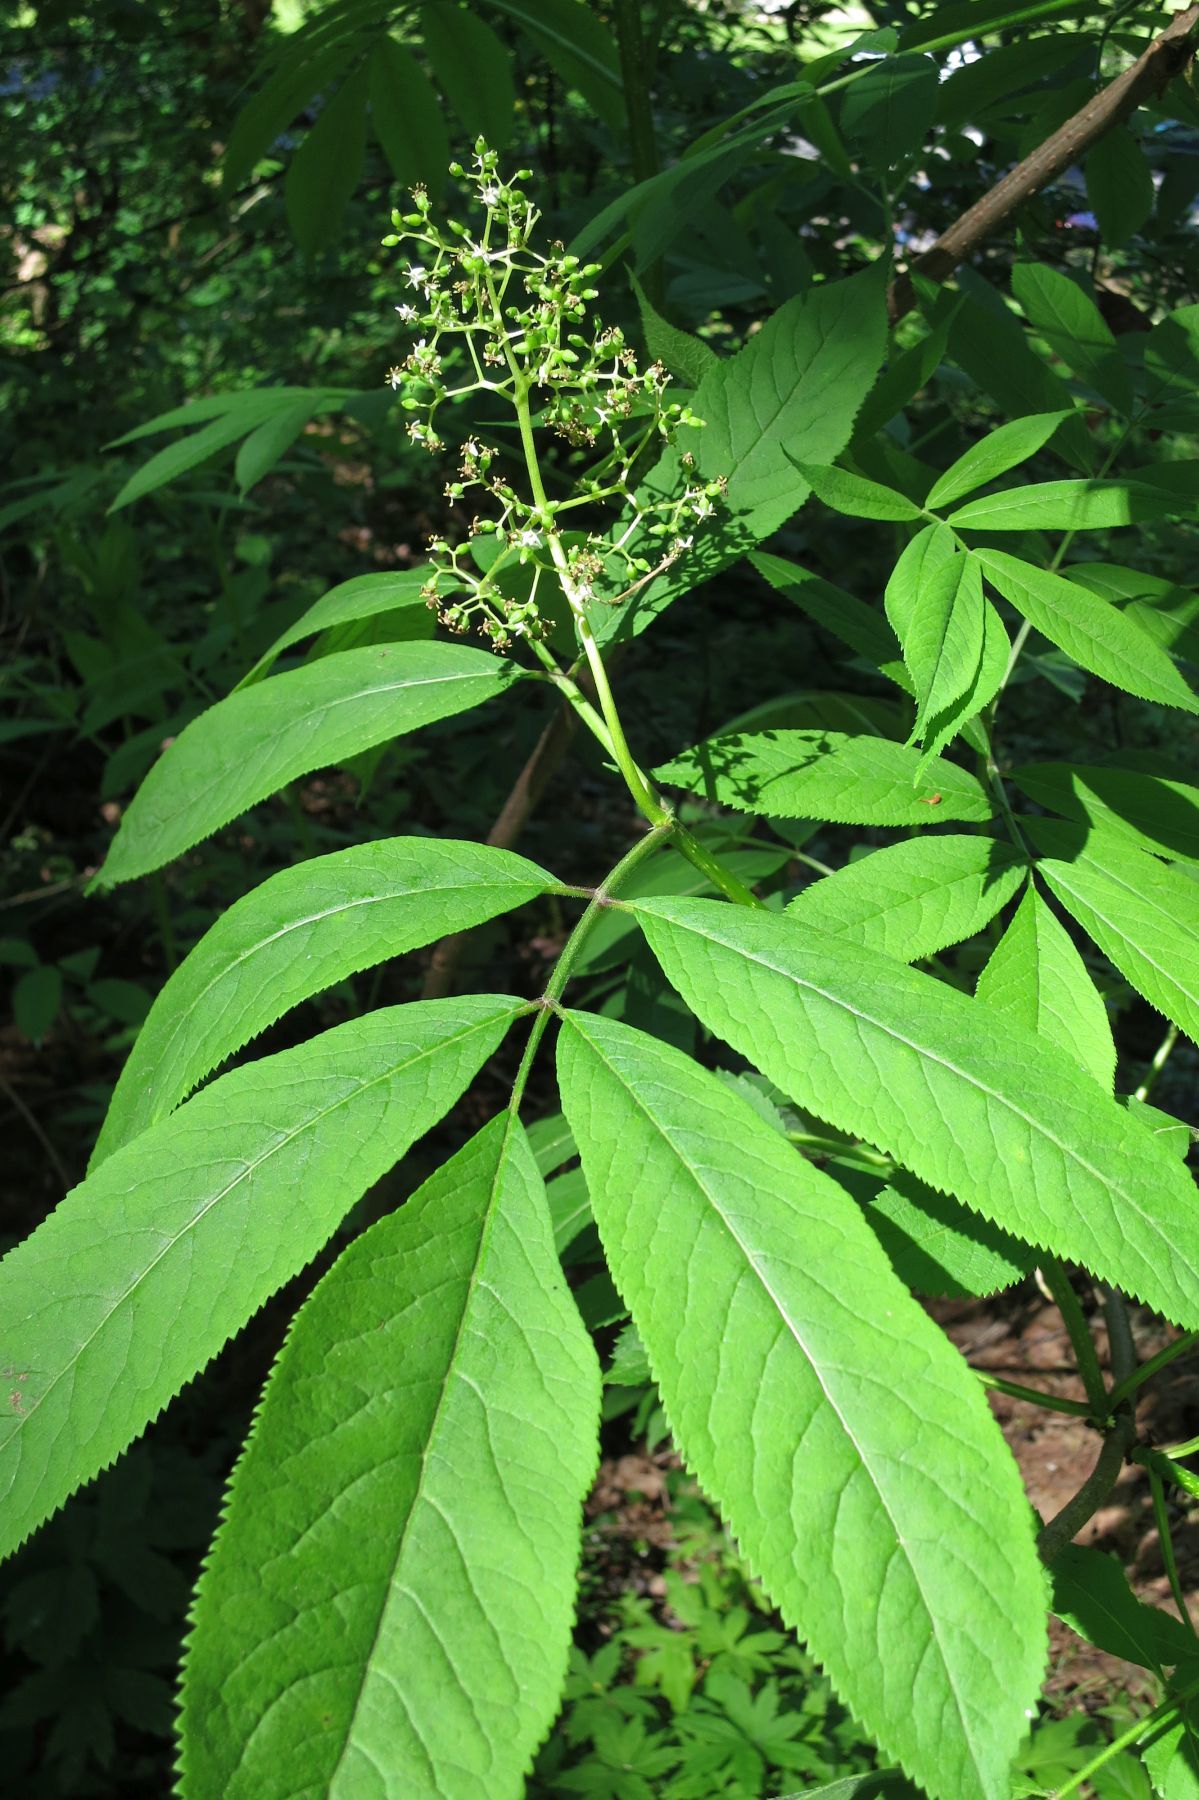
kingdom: Plantae
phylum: Tracheophyta
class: Magnoliopsida
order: Dipsacales
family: Viburnaceae
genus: Sambucus
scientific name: Sambucus racemosa
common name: Red-berried elder
